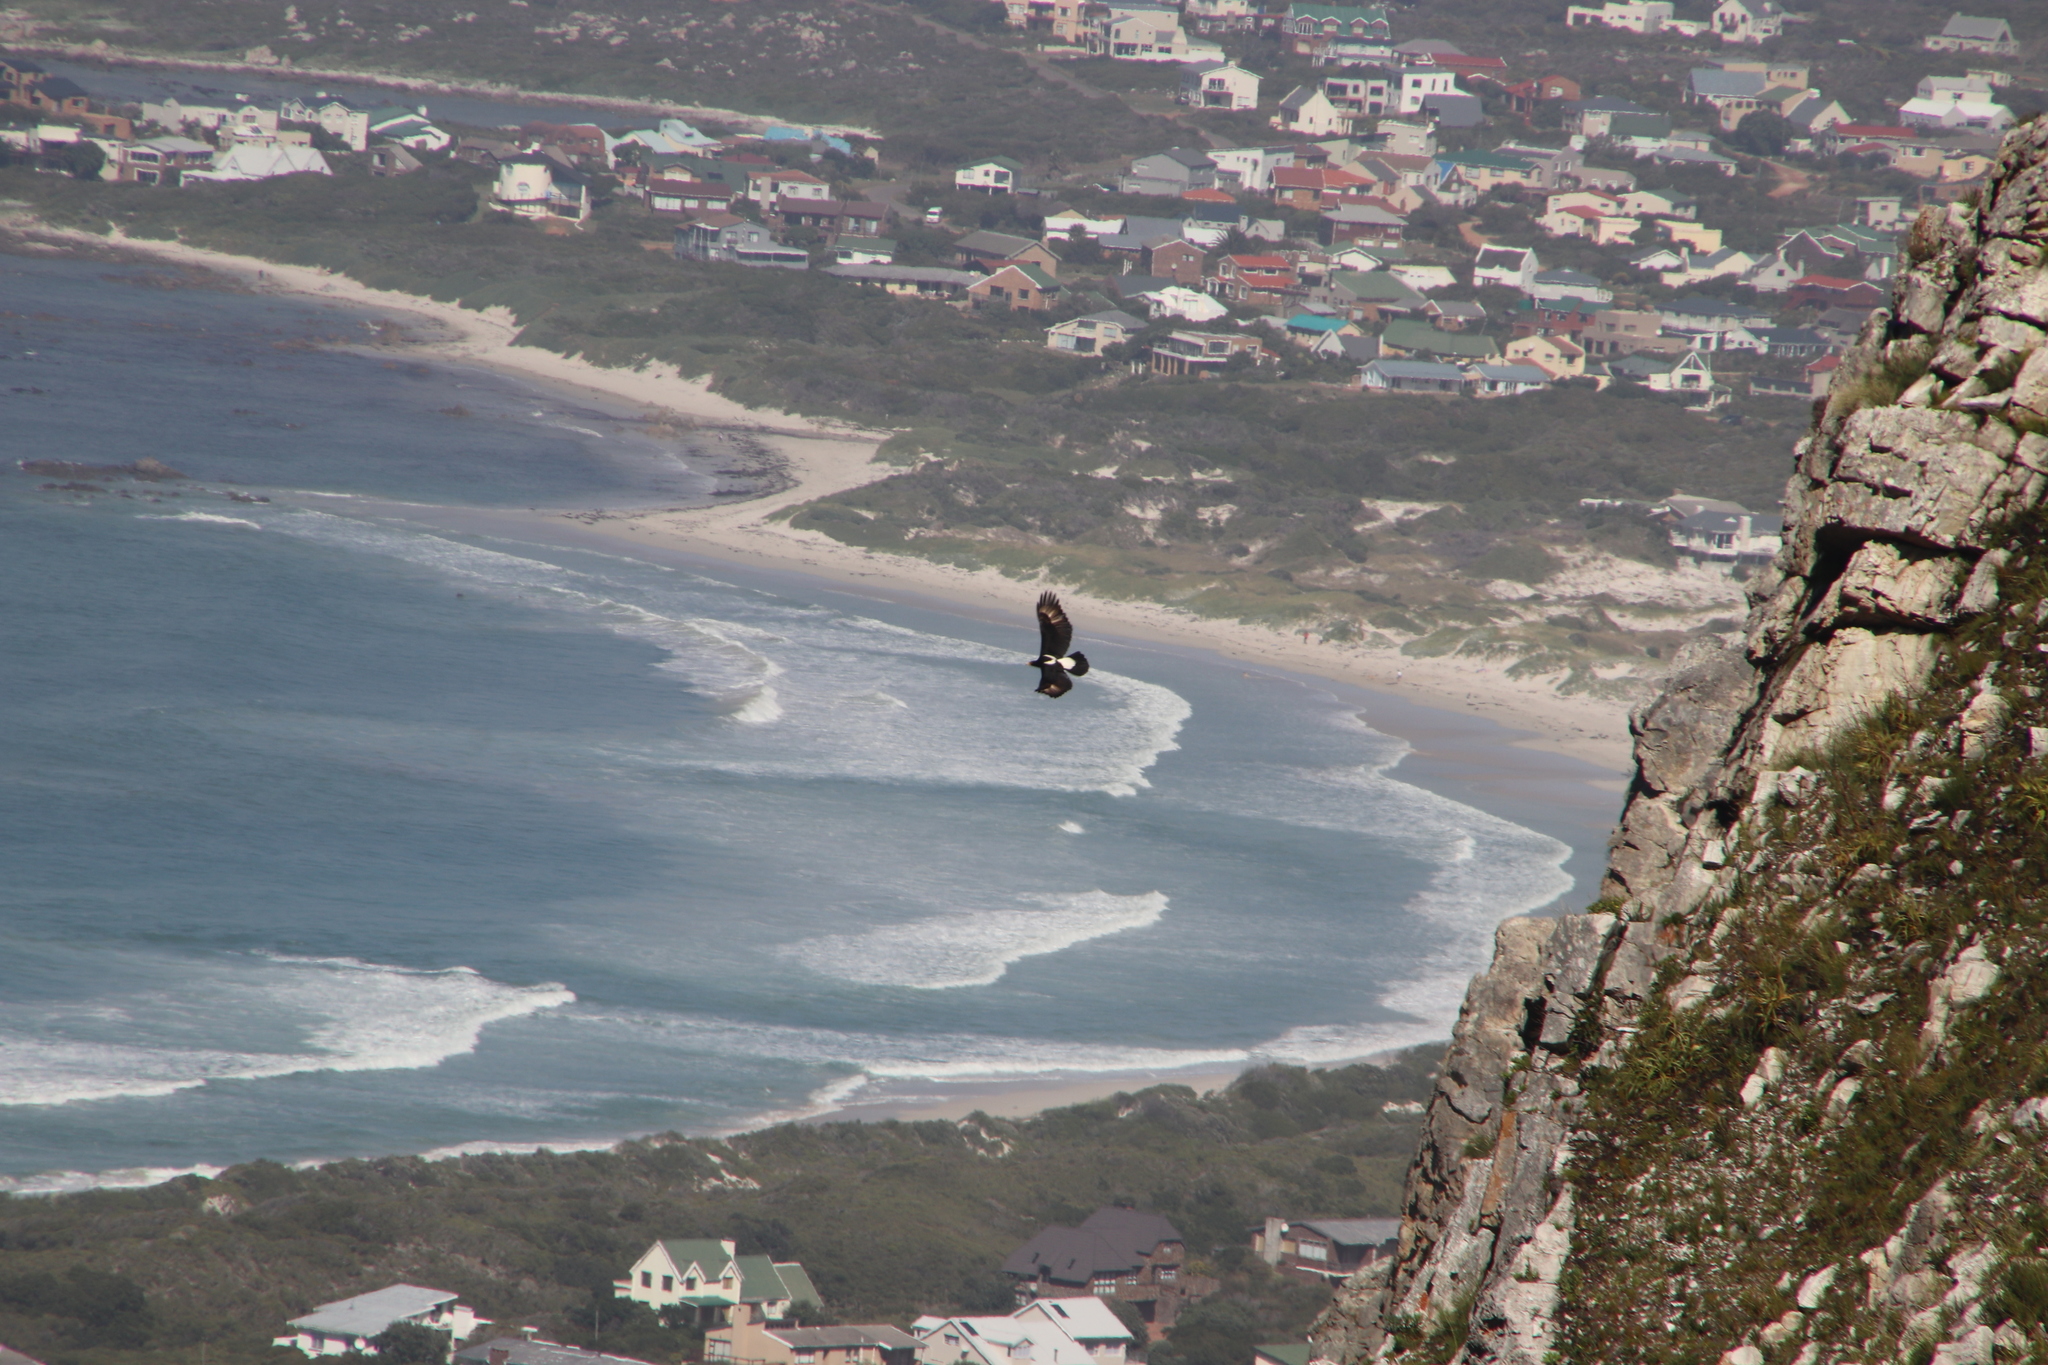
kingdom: Animalia
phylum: Chordata
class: Aves
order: Accipitriformes
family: Accipitridae
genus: Aquila
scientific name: Aquila verreauxii
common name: Verreaux's eagle
